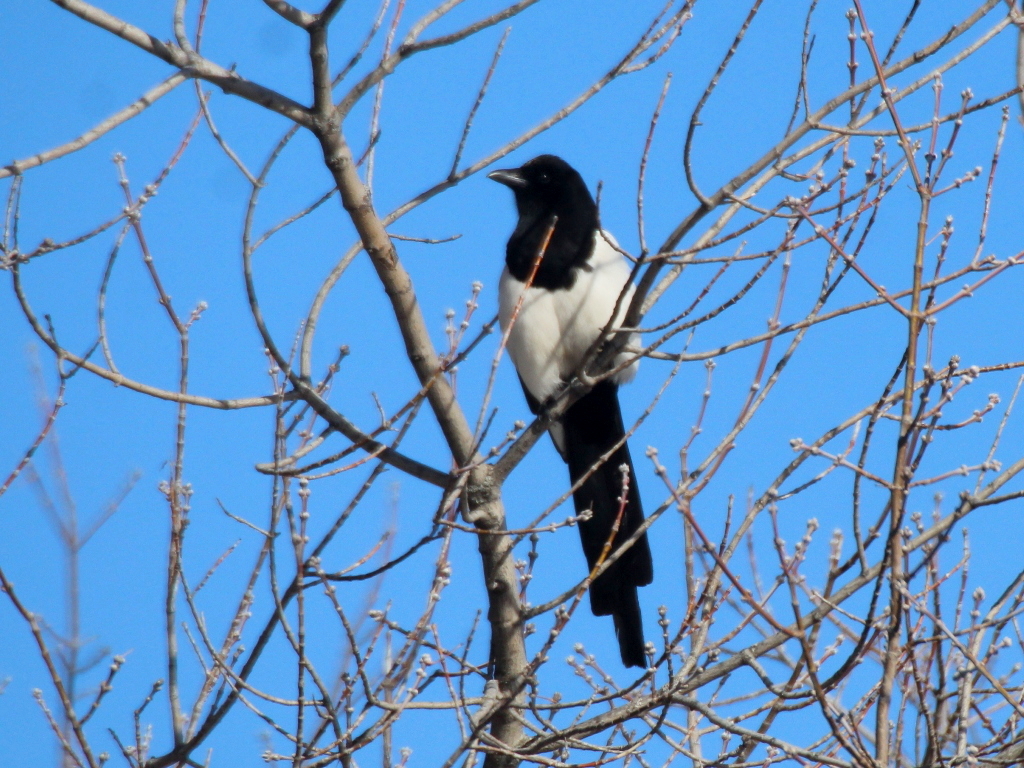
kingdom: Animalia
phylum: Chordata
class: Aves
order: Passeriformes
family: Corvidae
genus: Pica
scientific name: Pica pica
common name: Eurasian magpie
